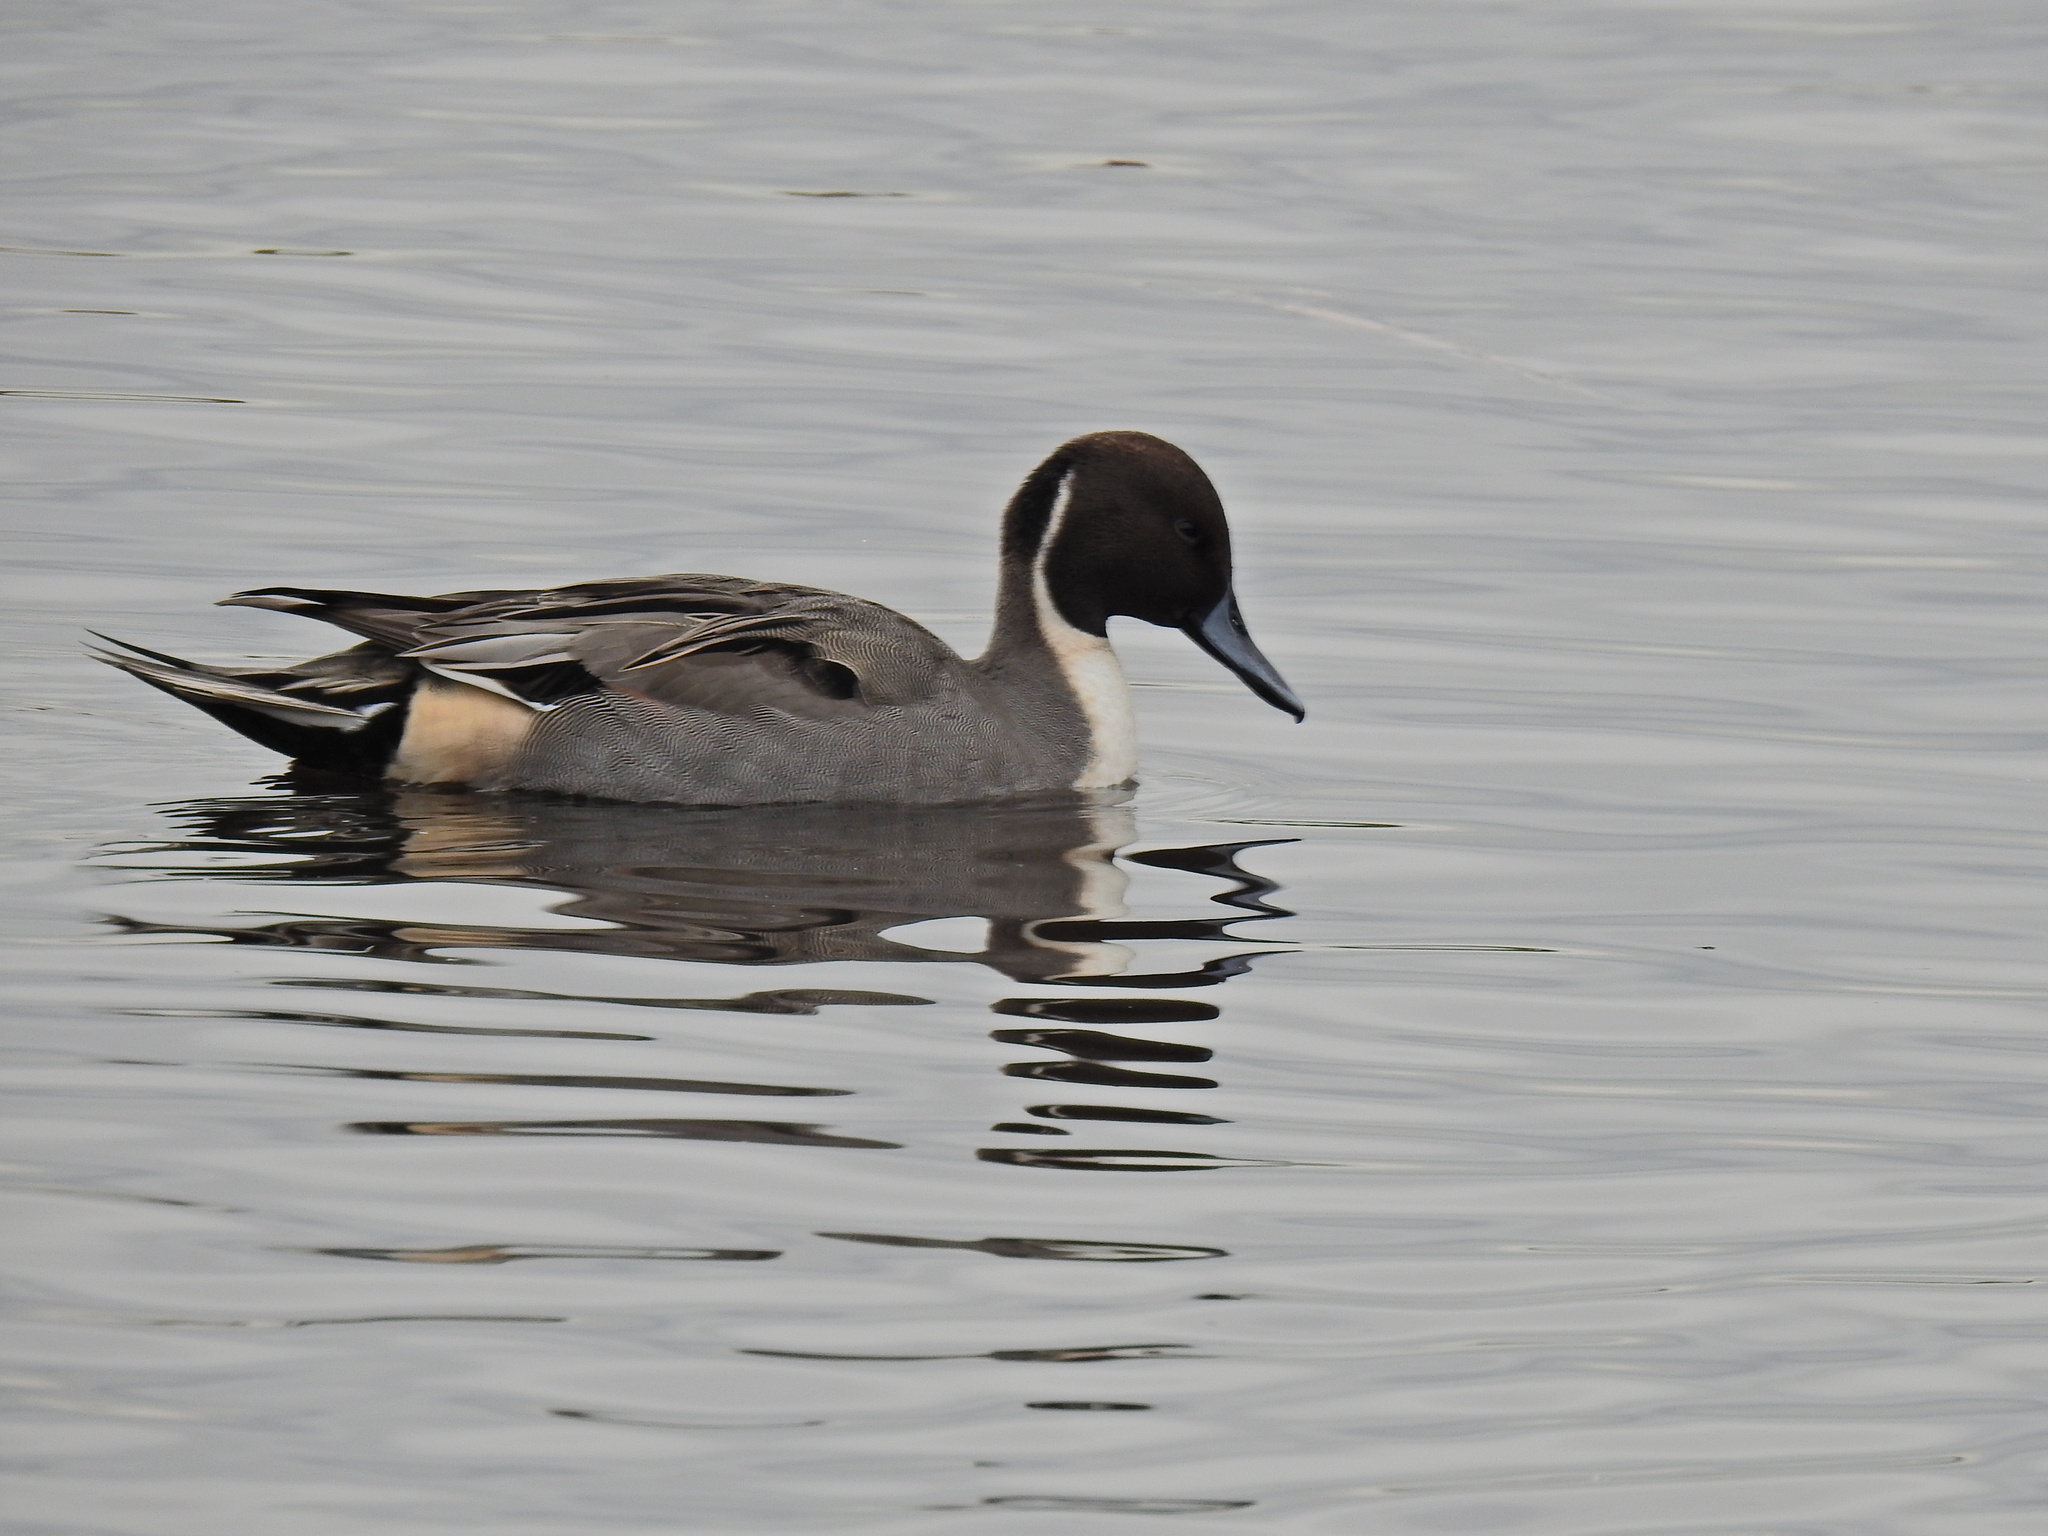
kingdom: Animalia
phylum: Chordata
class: Aves
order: Anseriformes
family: Anatidae
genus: Anas
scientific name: Anas acuta
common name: Northern pintail
